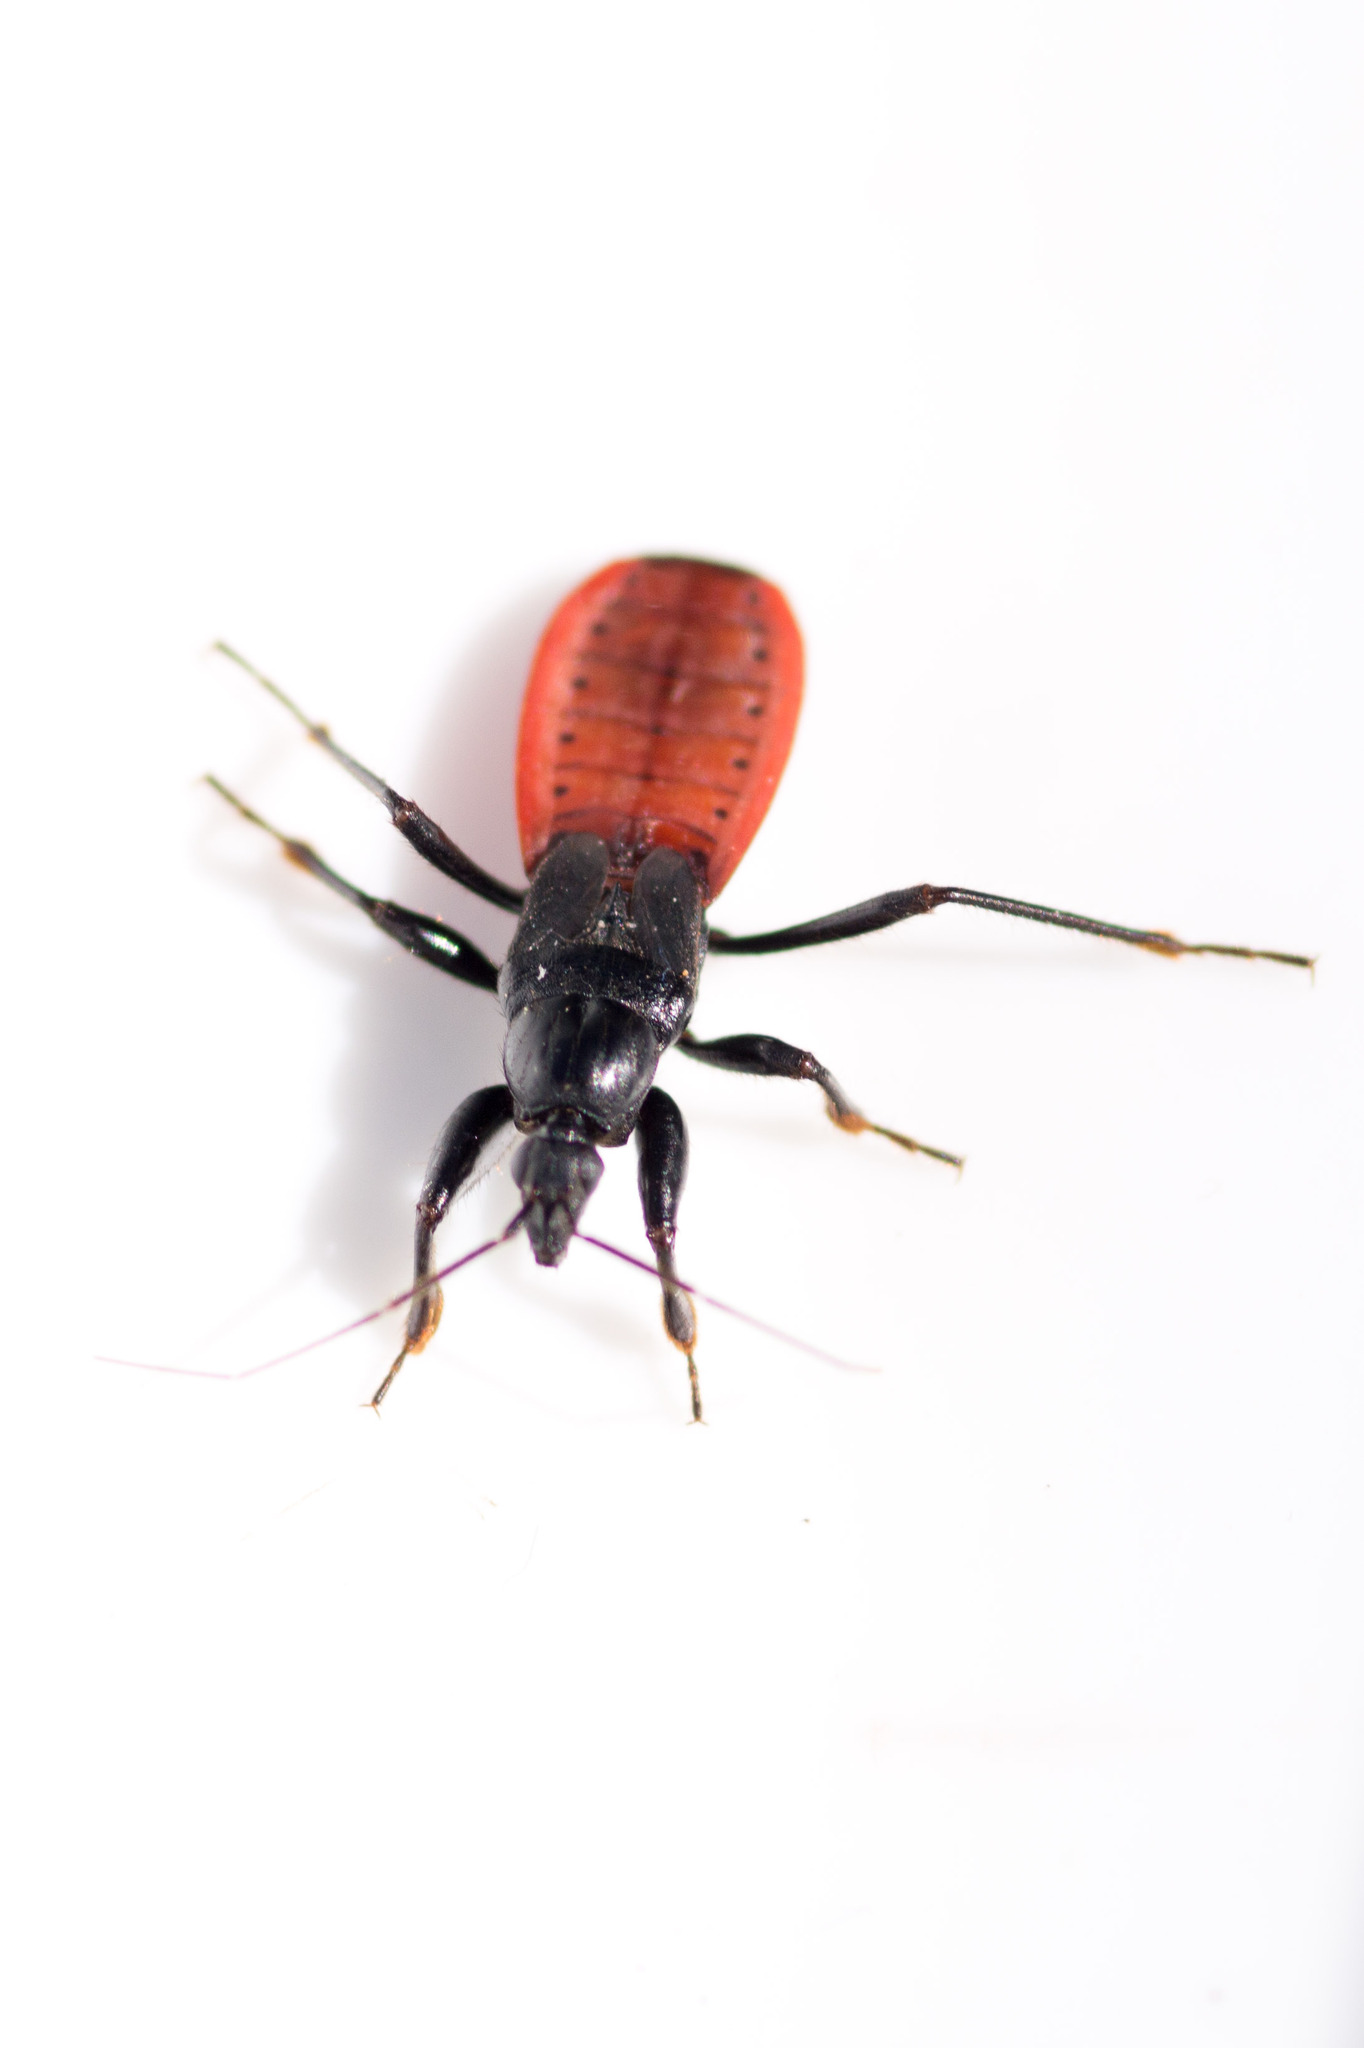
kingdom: Animalia
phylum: Arthropoda
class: Insecta
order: Hemiptera
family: Reduviidae
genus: Melanolestes
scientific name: Melanolestes picipes
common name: Assassin bug
